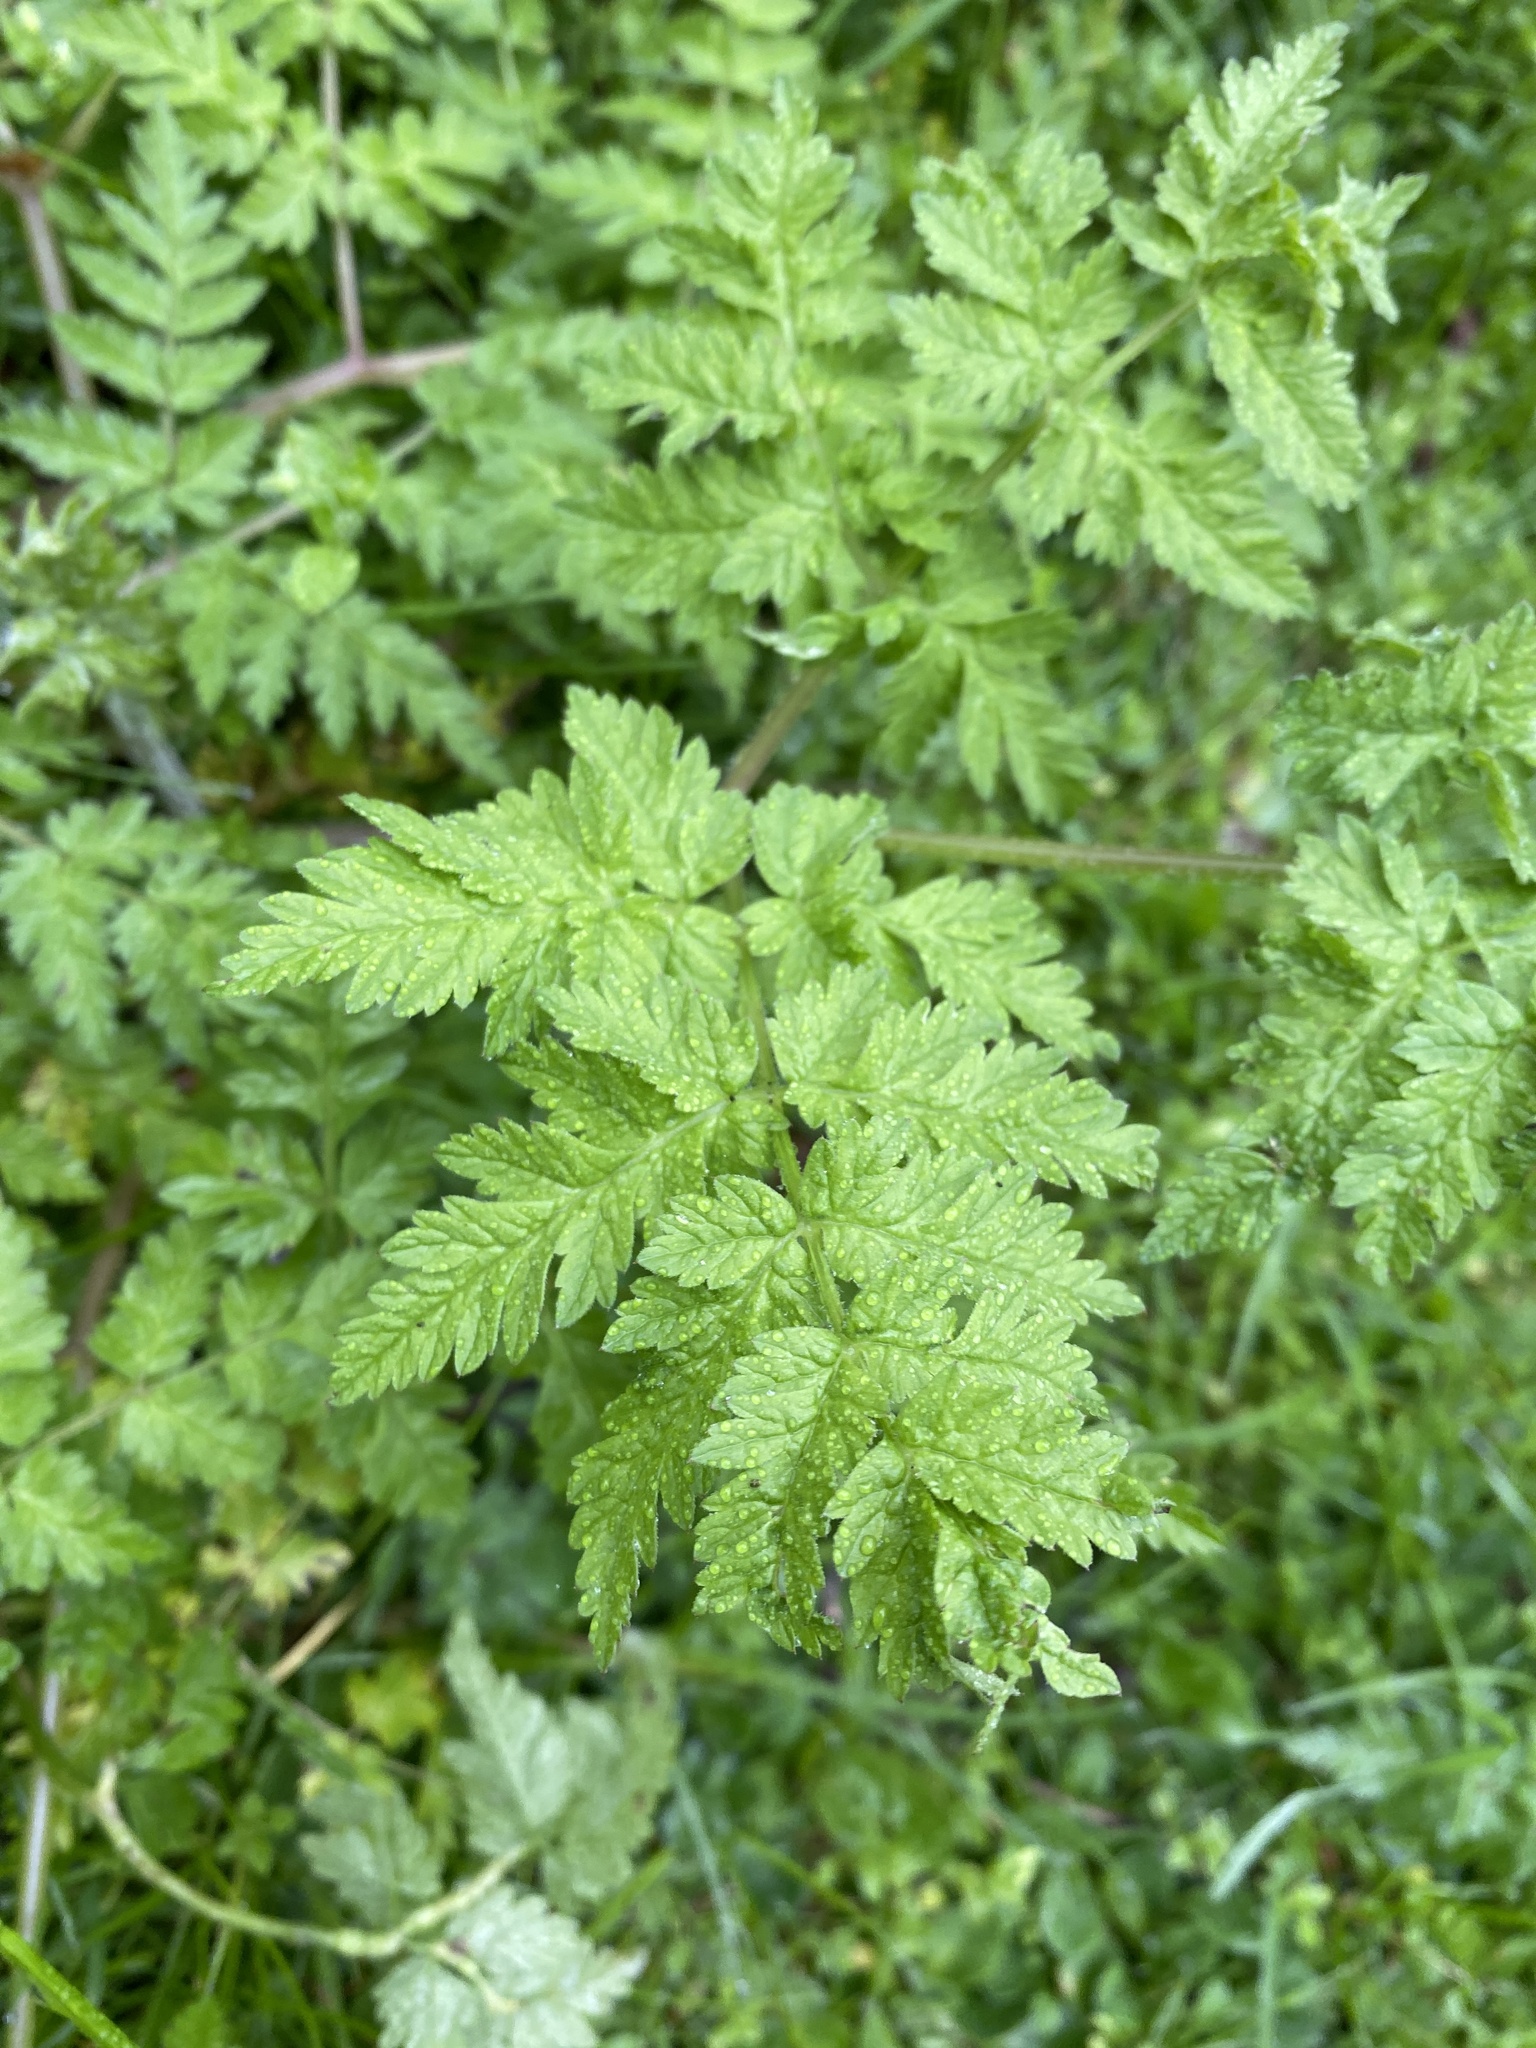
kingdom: Plantae
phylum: Tracheophyta
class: Magnoliopsida
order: Apiales
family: Apiaceae
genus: Anthriscus
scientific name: Anthriscus sylvestris
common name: Cow parsley
